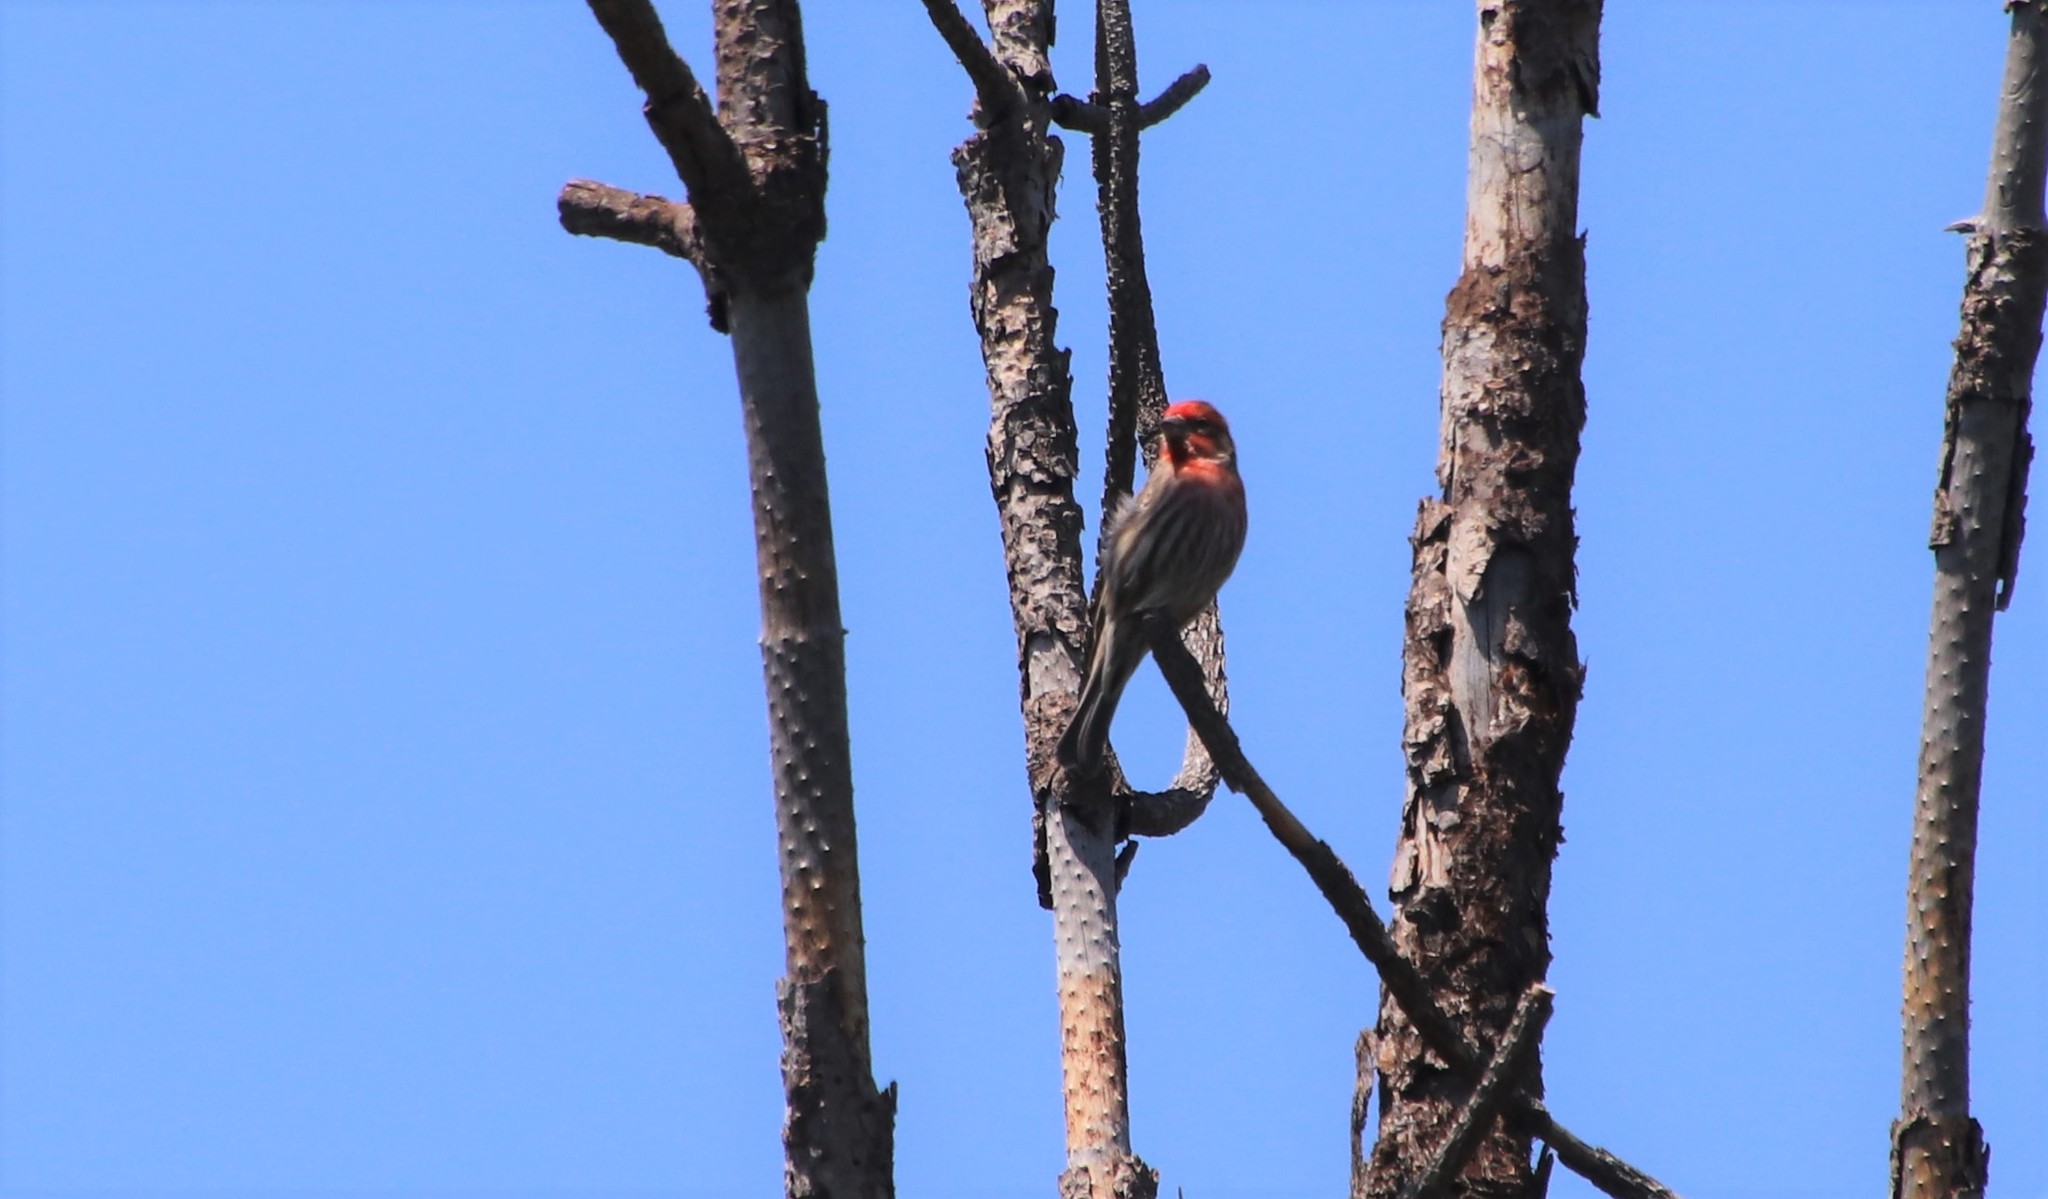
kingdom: Animalia
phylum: Chordata
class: Aves
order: Passeriformes
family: Fringillidae
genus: Haemorhous
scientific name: Haemorhous mexicanus
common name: House finch
